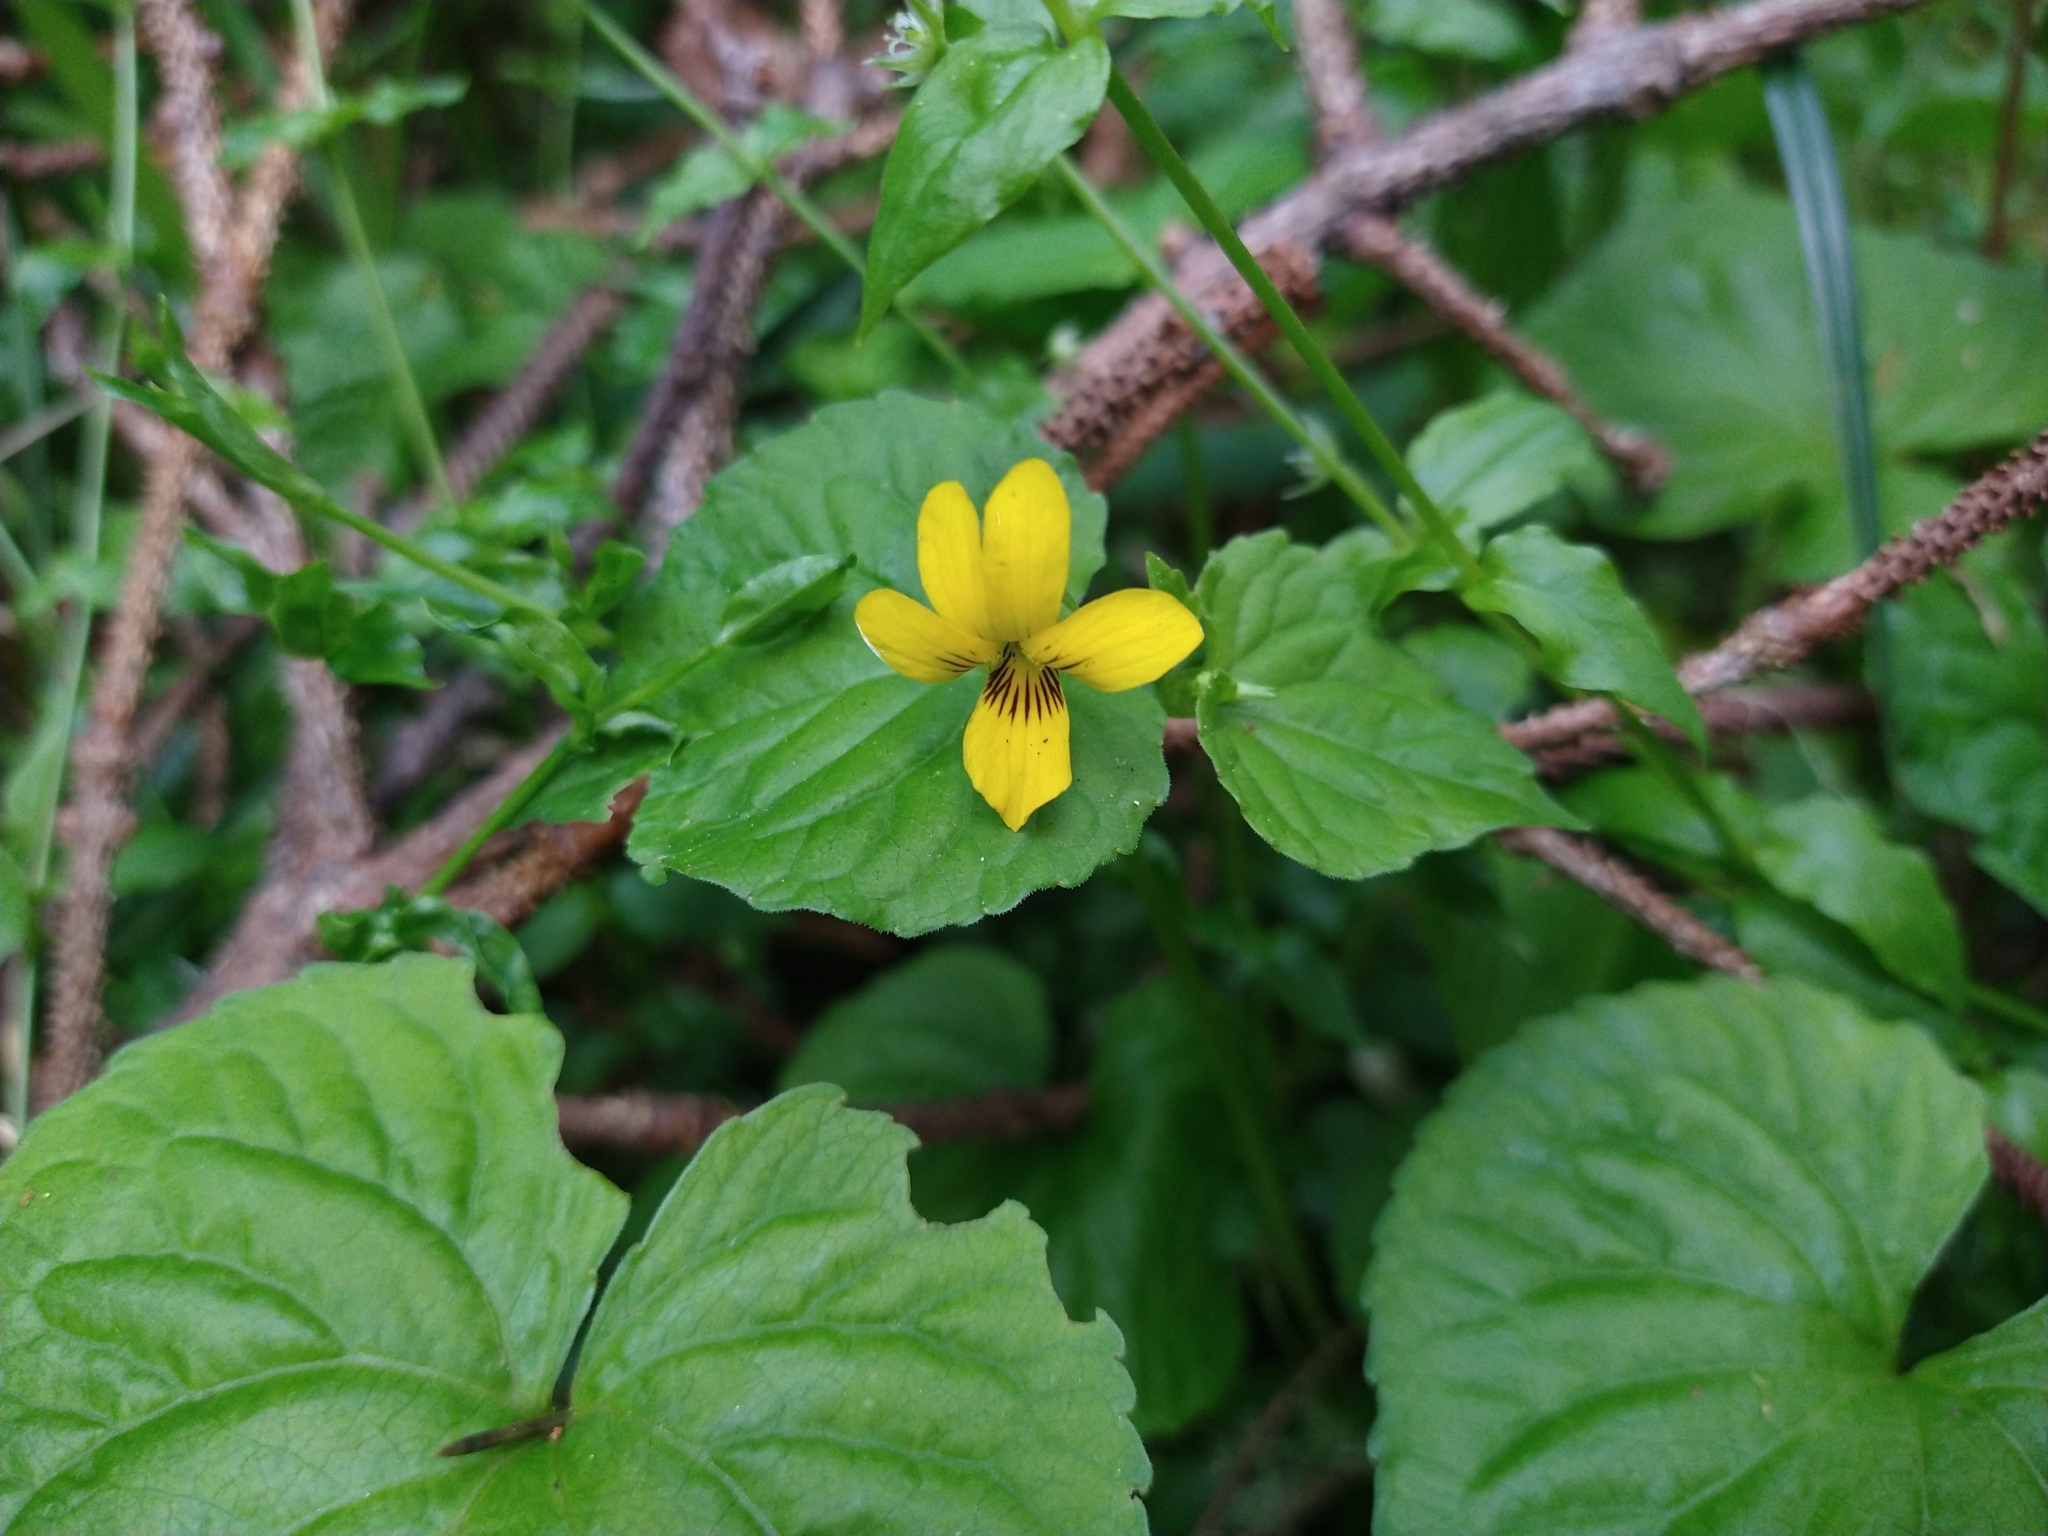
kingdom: Plantae
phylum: Tracheophyta
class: Magnoliopsida
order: Malpighiales
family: Violaceae
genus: Viola
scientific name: Viola glabella
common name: Stream violet
